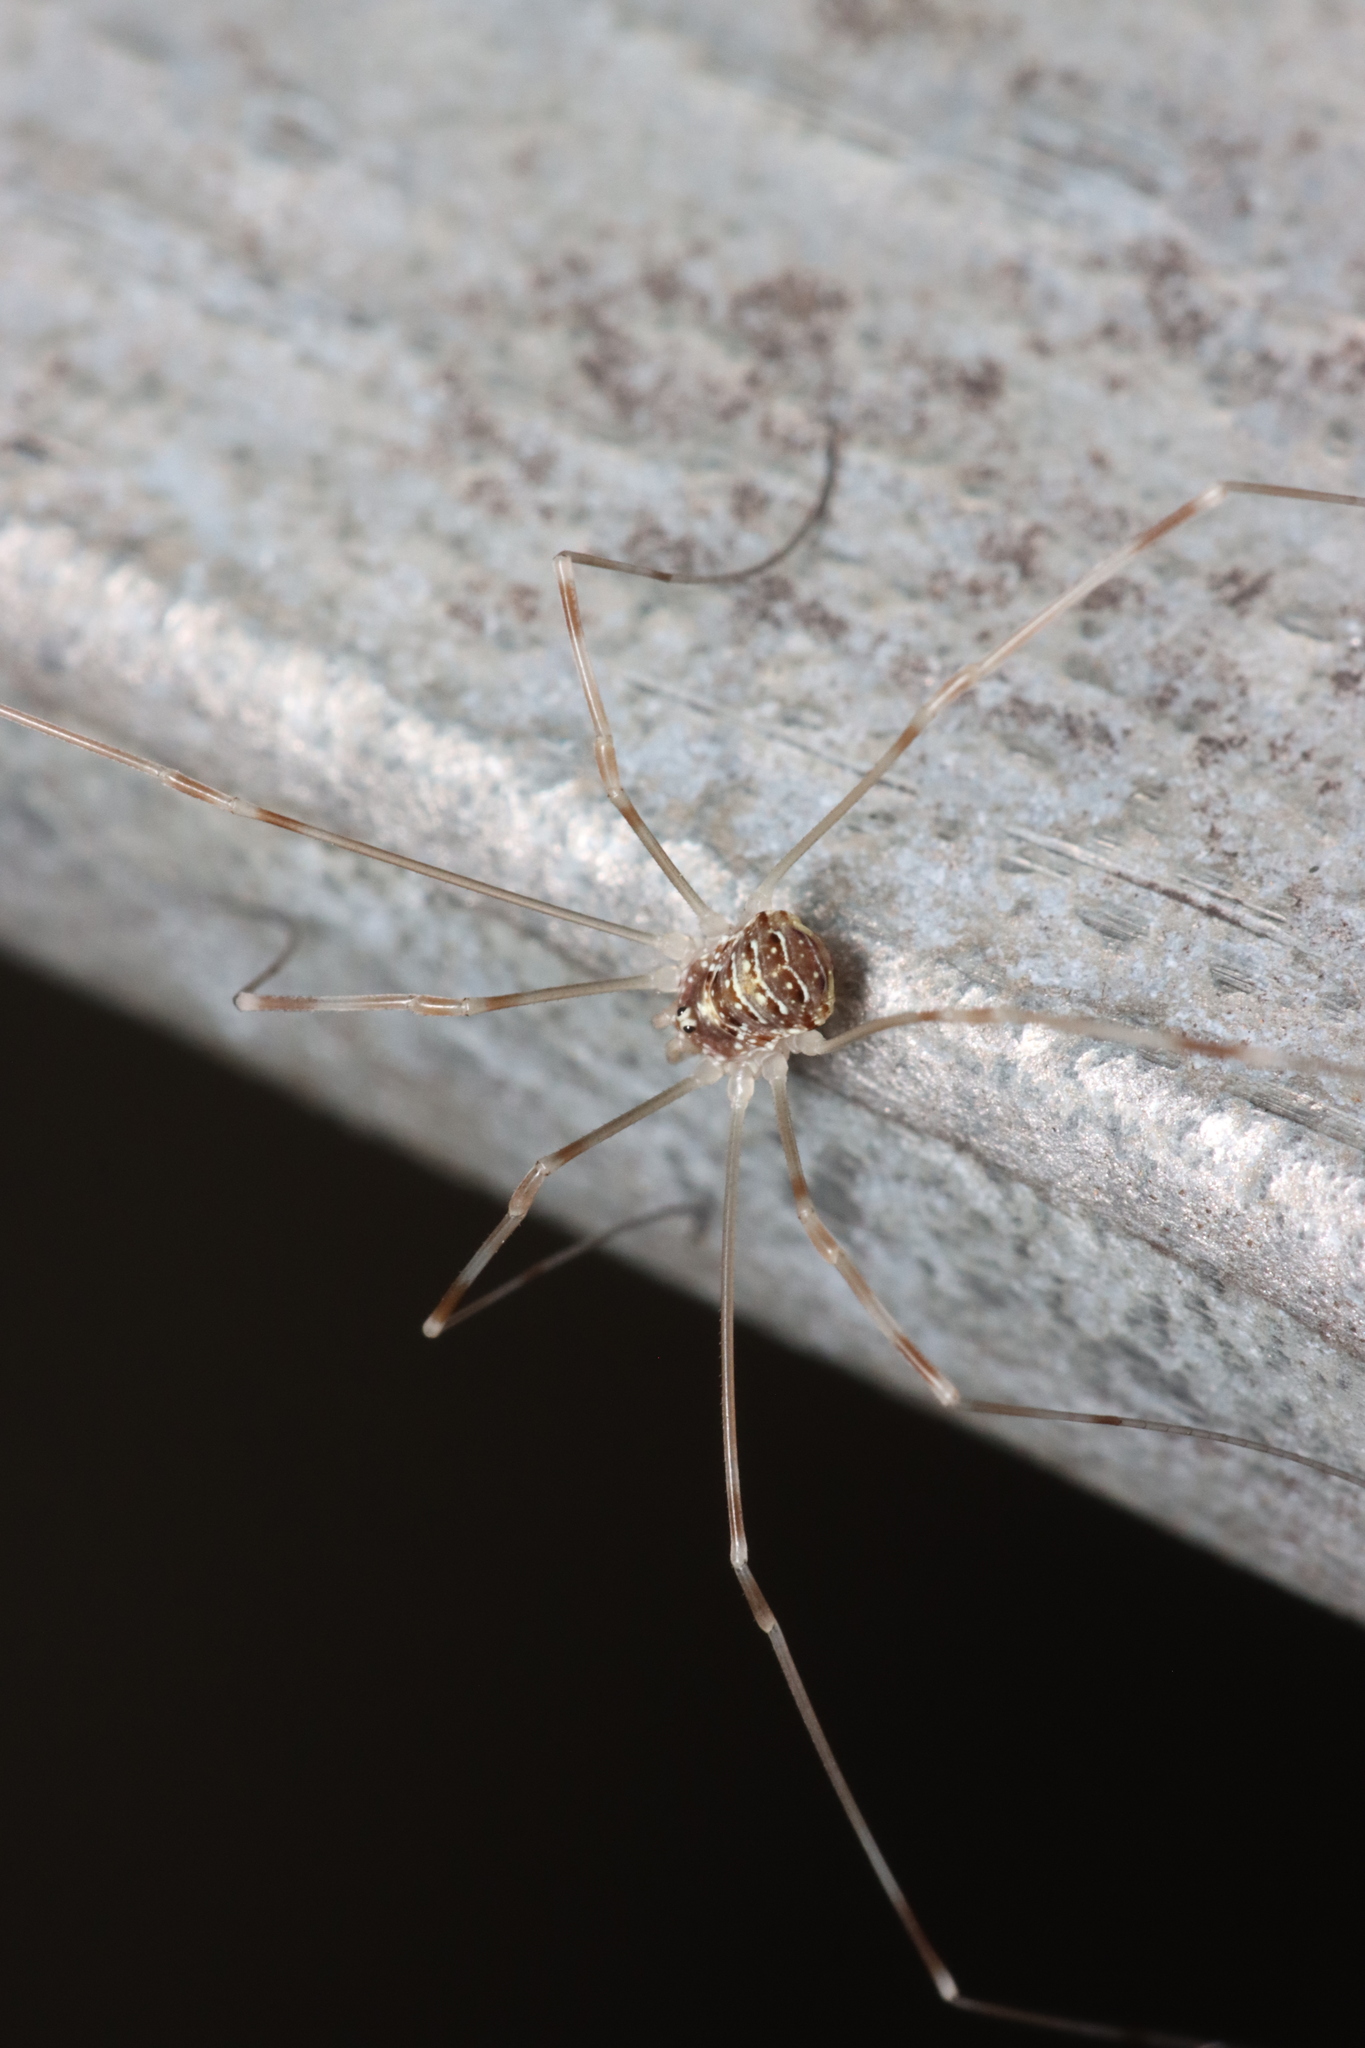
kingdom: Animalia
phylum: Arthropoda
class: Arachnida
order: Opiliones
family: Phalangiidae
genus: Opilio
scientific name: Opilio canestrinii
